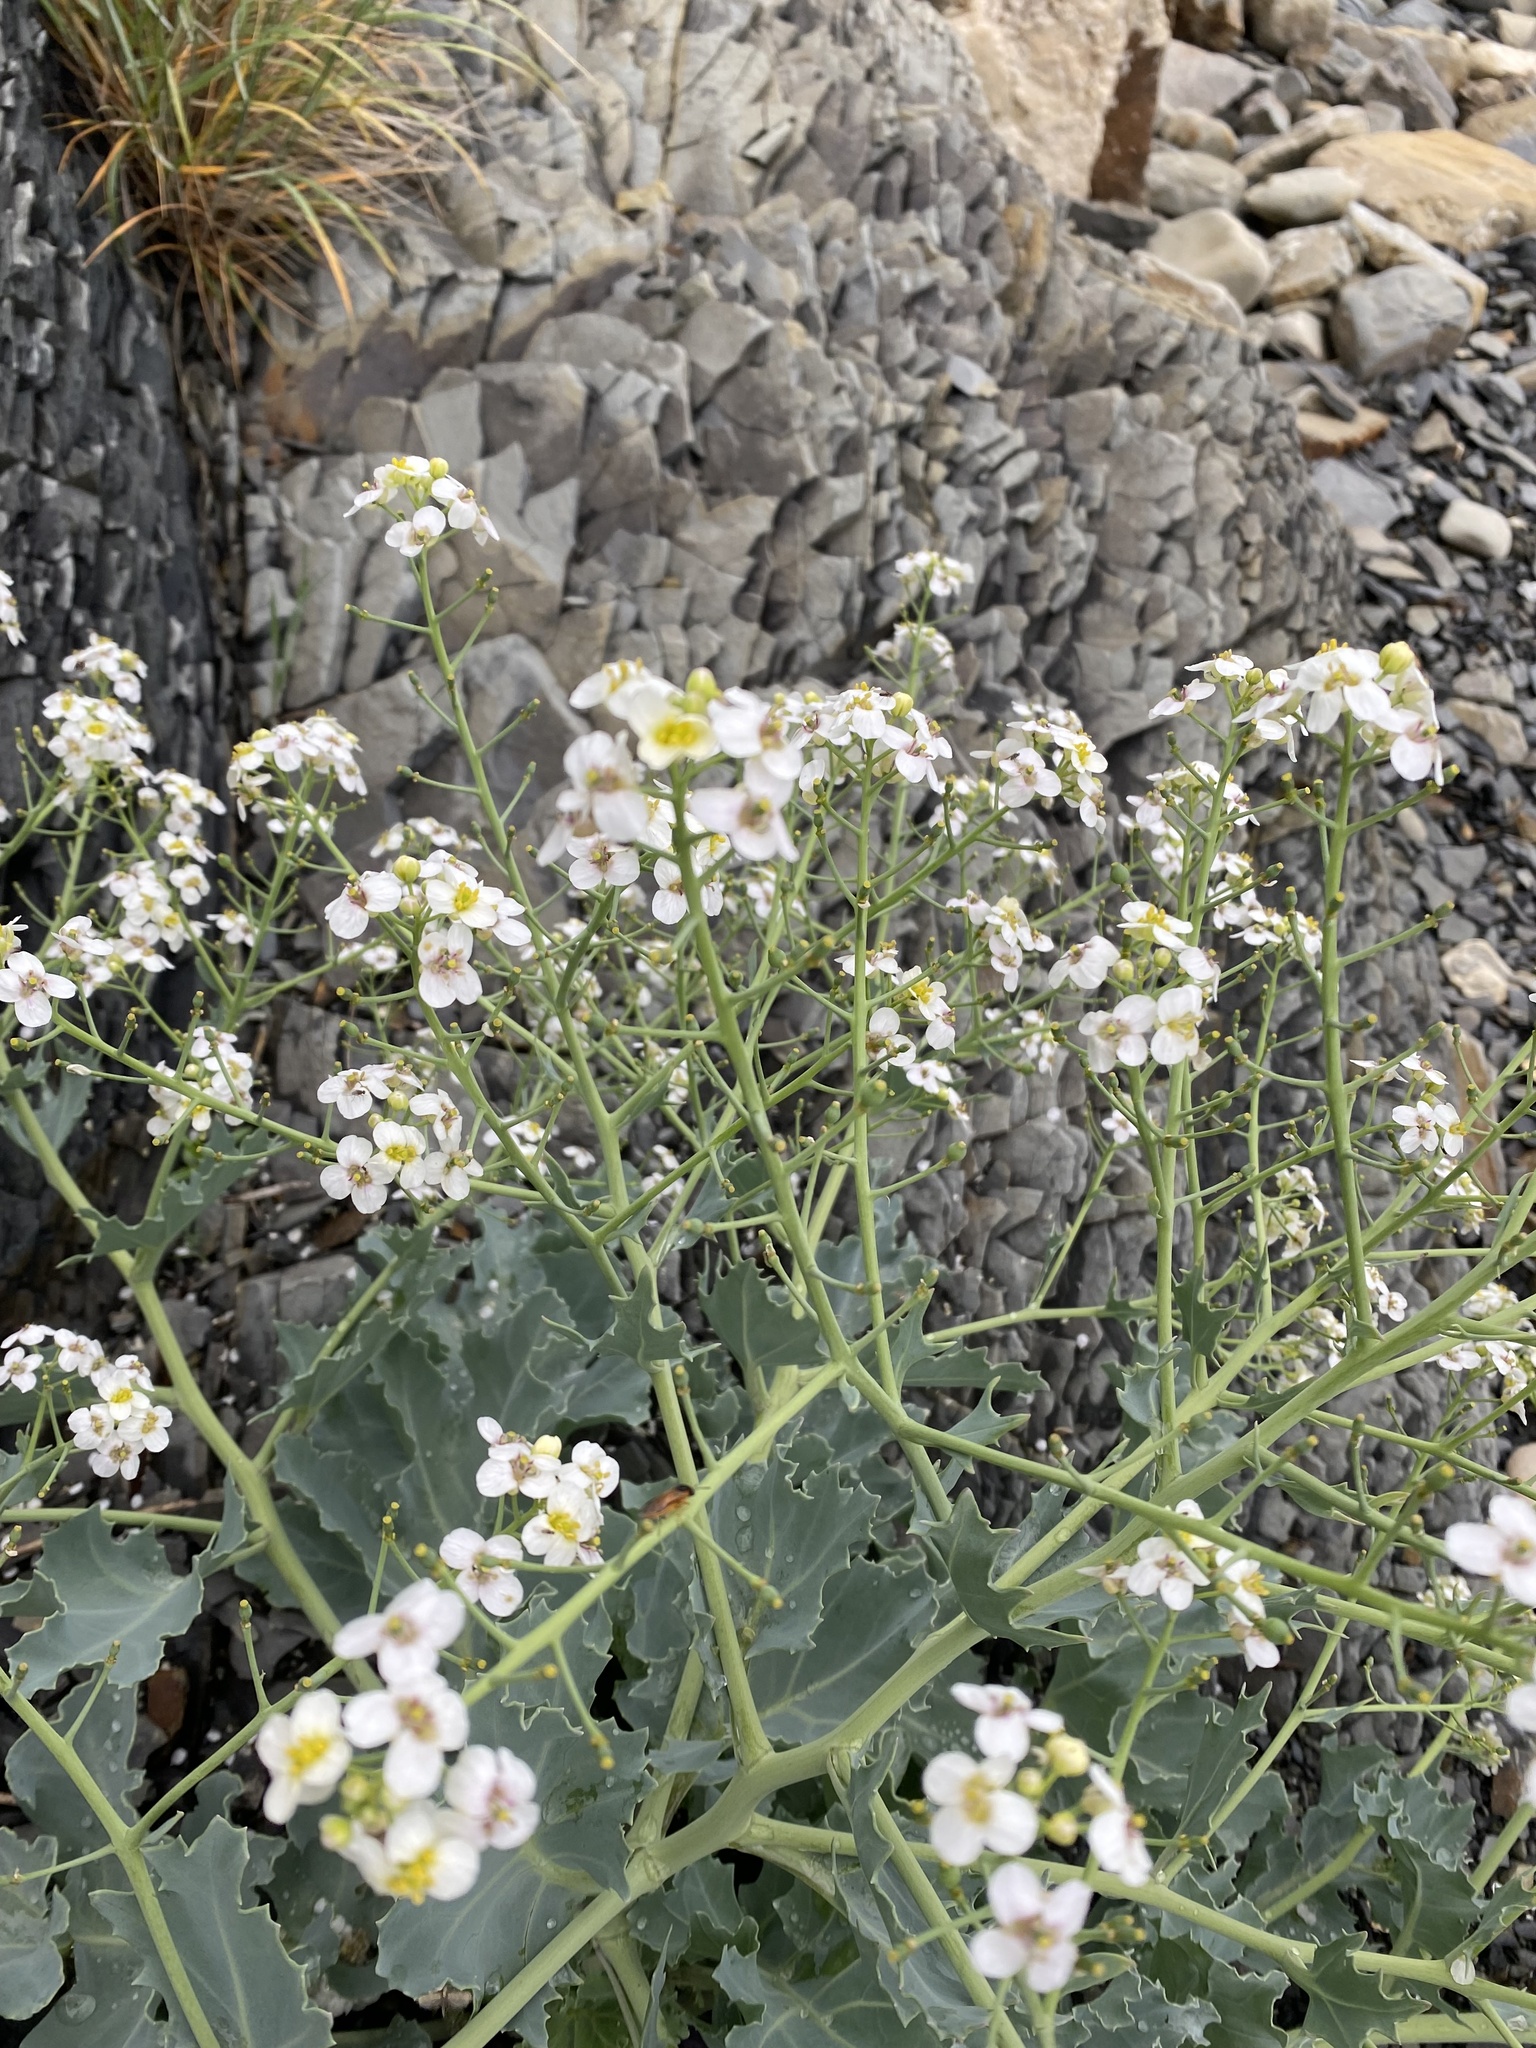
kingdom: Plantae
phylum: Tracheophyta
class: Magnoliopsida
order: Brassicales
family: Brassicaceae
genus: Crambe
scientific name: Crambe maritima
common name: Sea-kale
